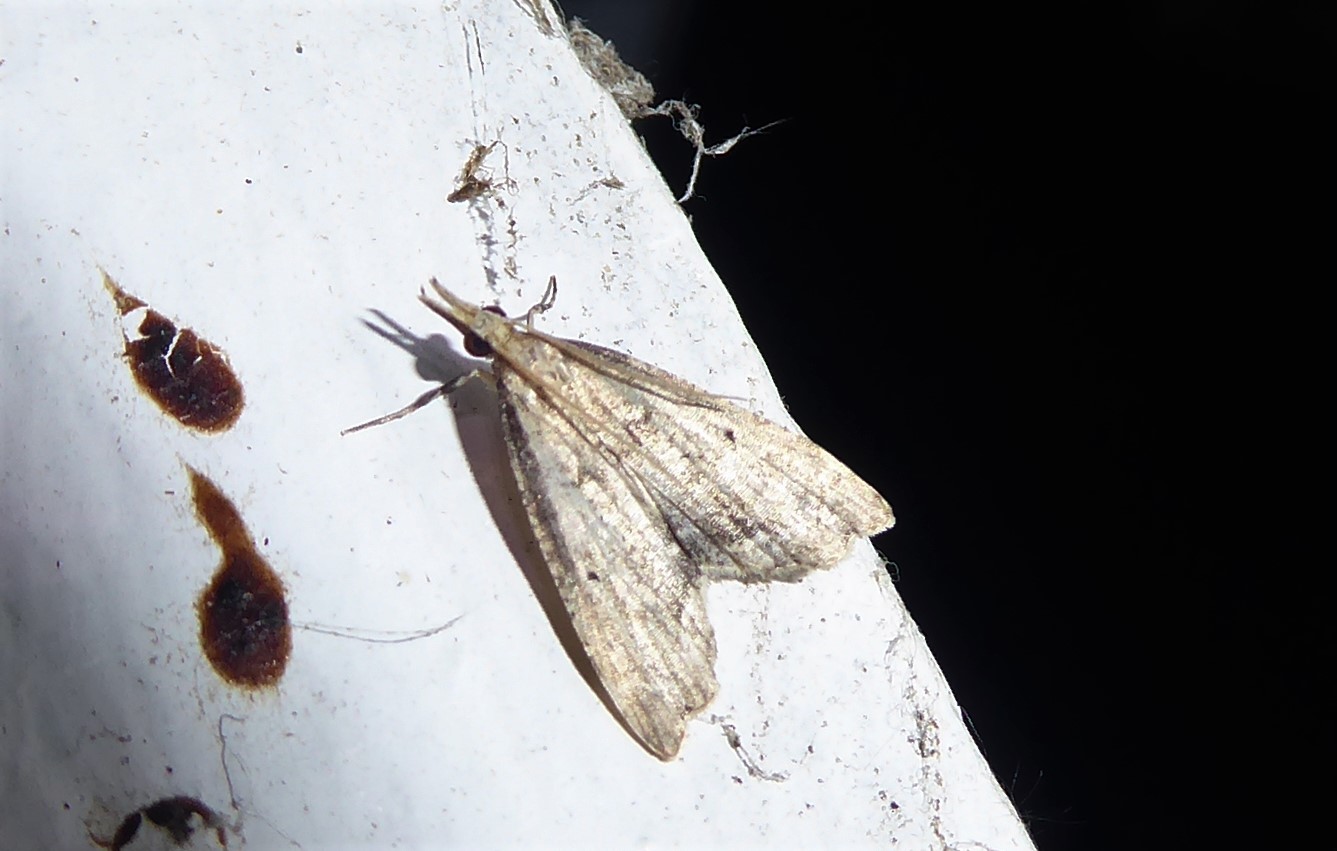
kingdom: Animalia
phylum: Arthropoda
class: Insecta
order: Lepidoptera
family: Crambidae
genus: Diplopseustis
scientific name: Diplopseustis perieresalis
